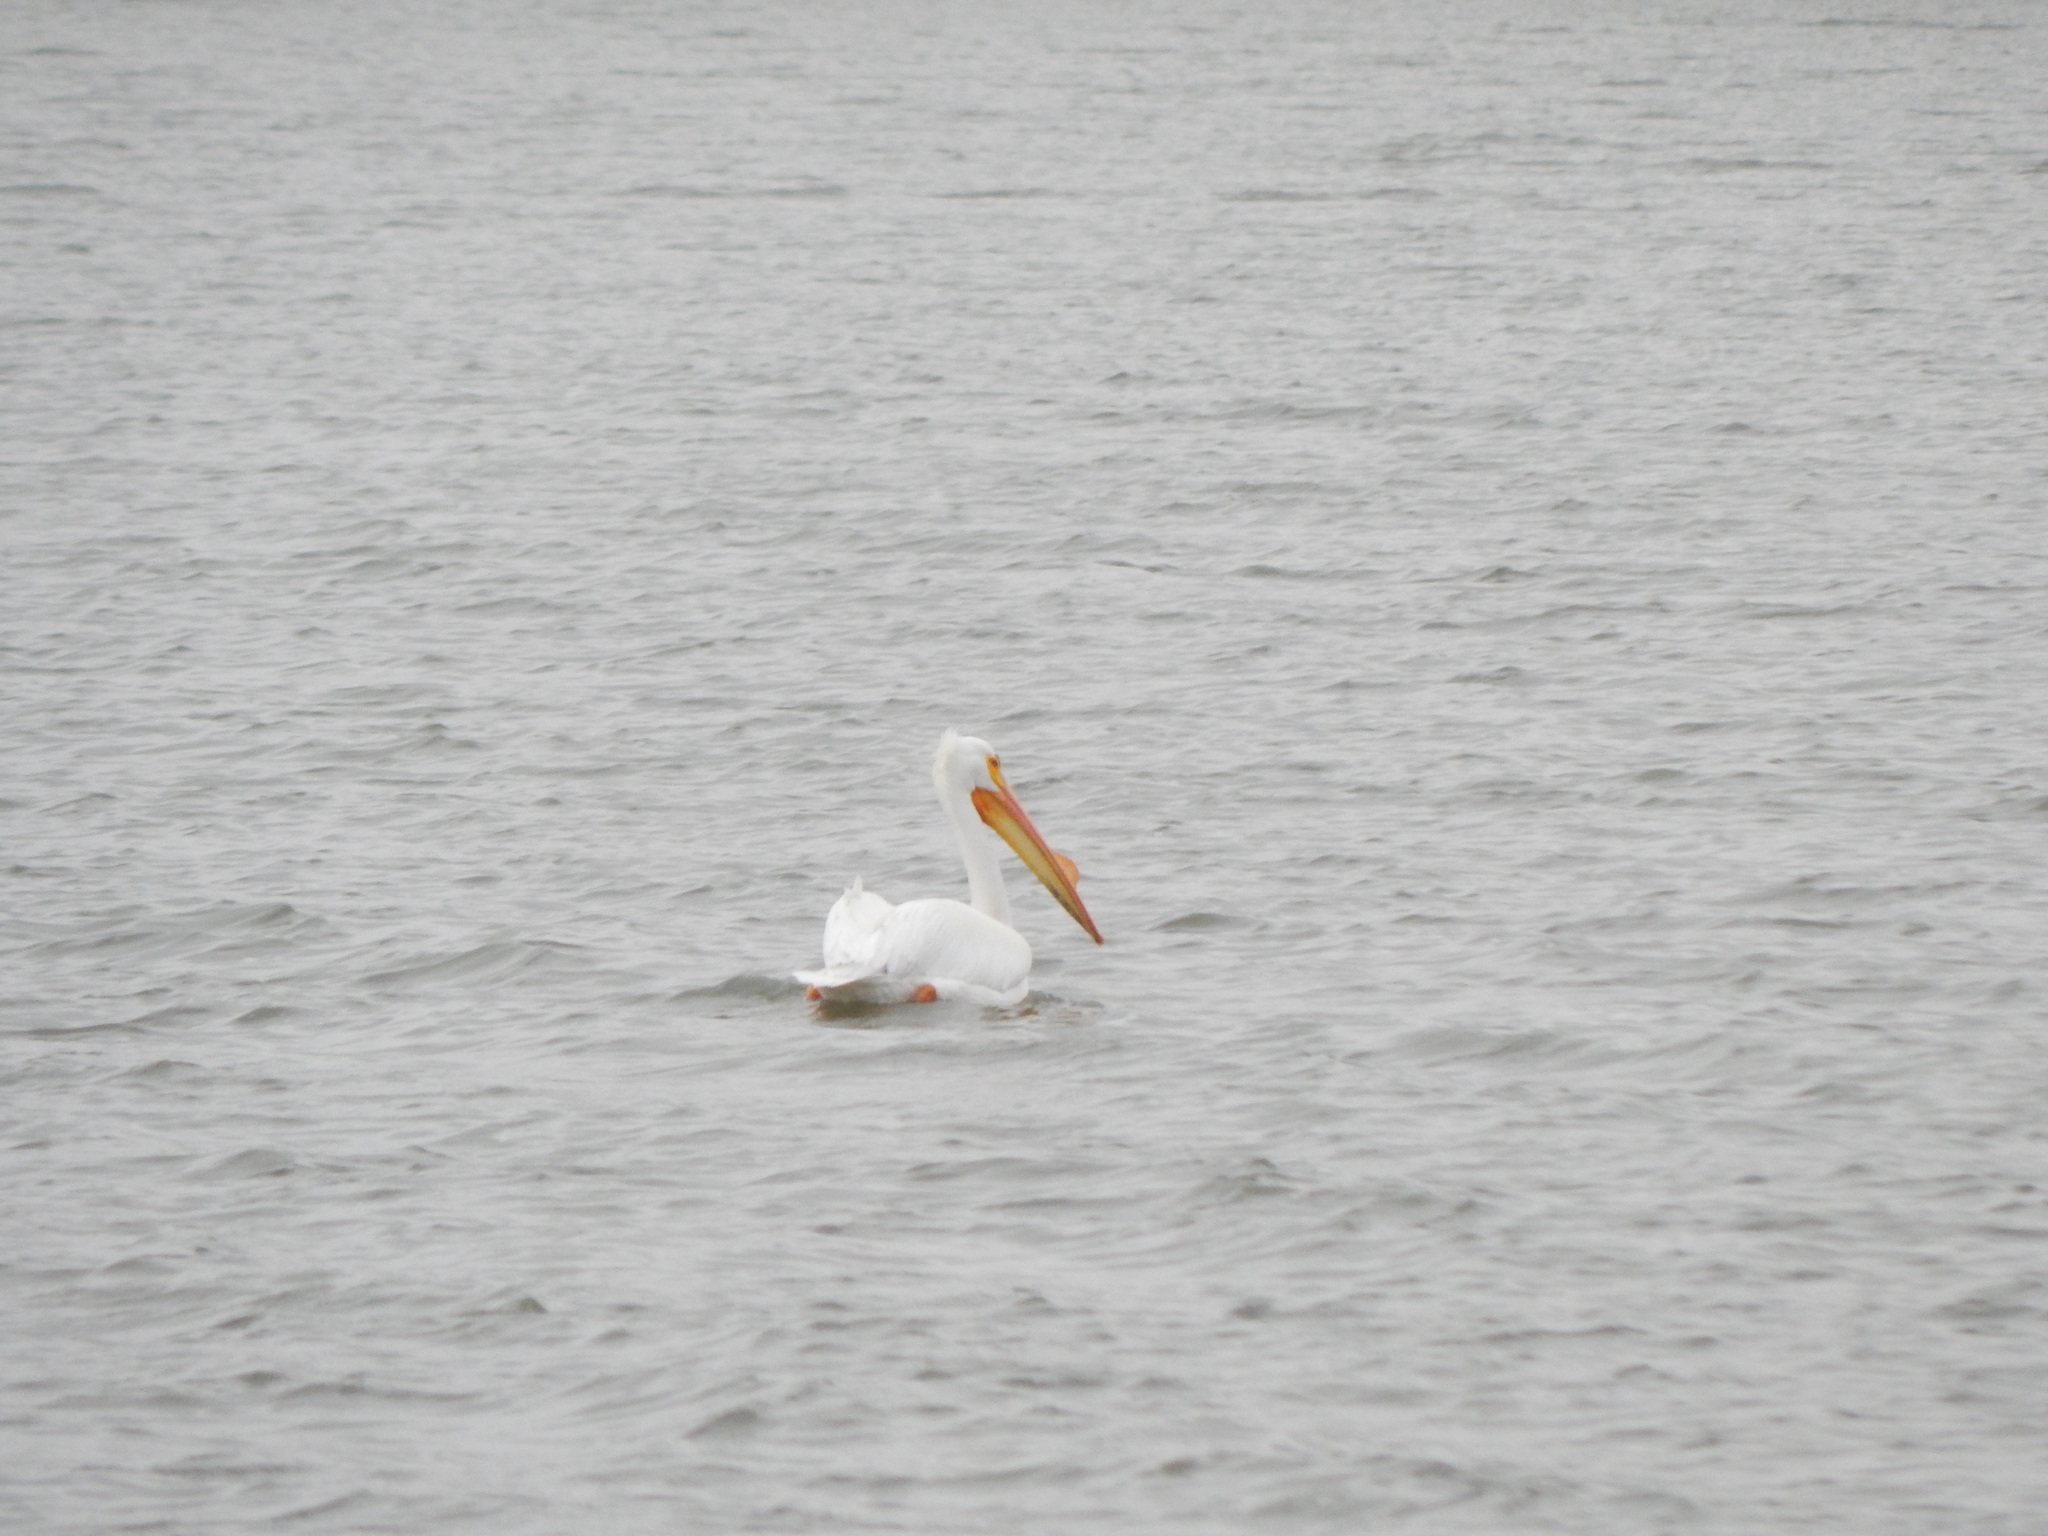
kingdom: Animalia
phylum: Chordata
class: Aves
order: Pelecaniformes
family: Pelecanidae
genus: Pelecanus
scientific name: Pelecanus erythrorhynchos
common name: American white pelican
